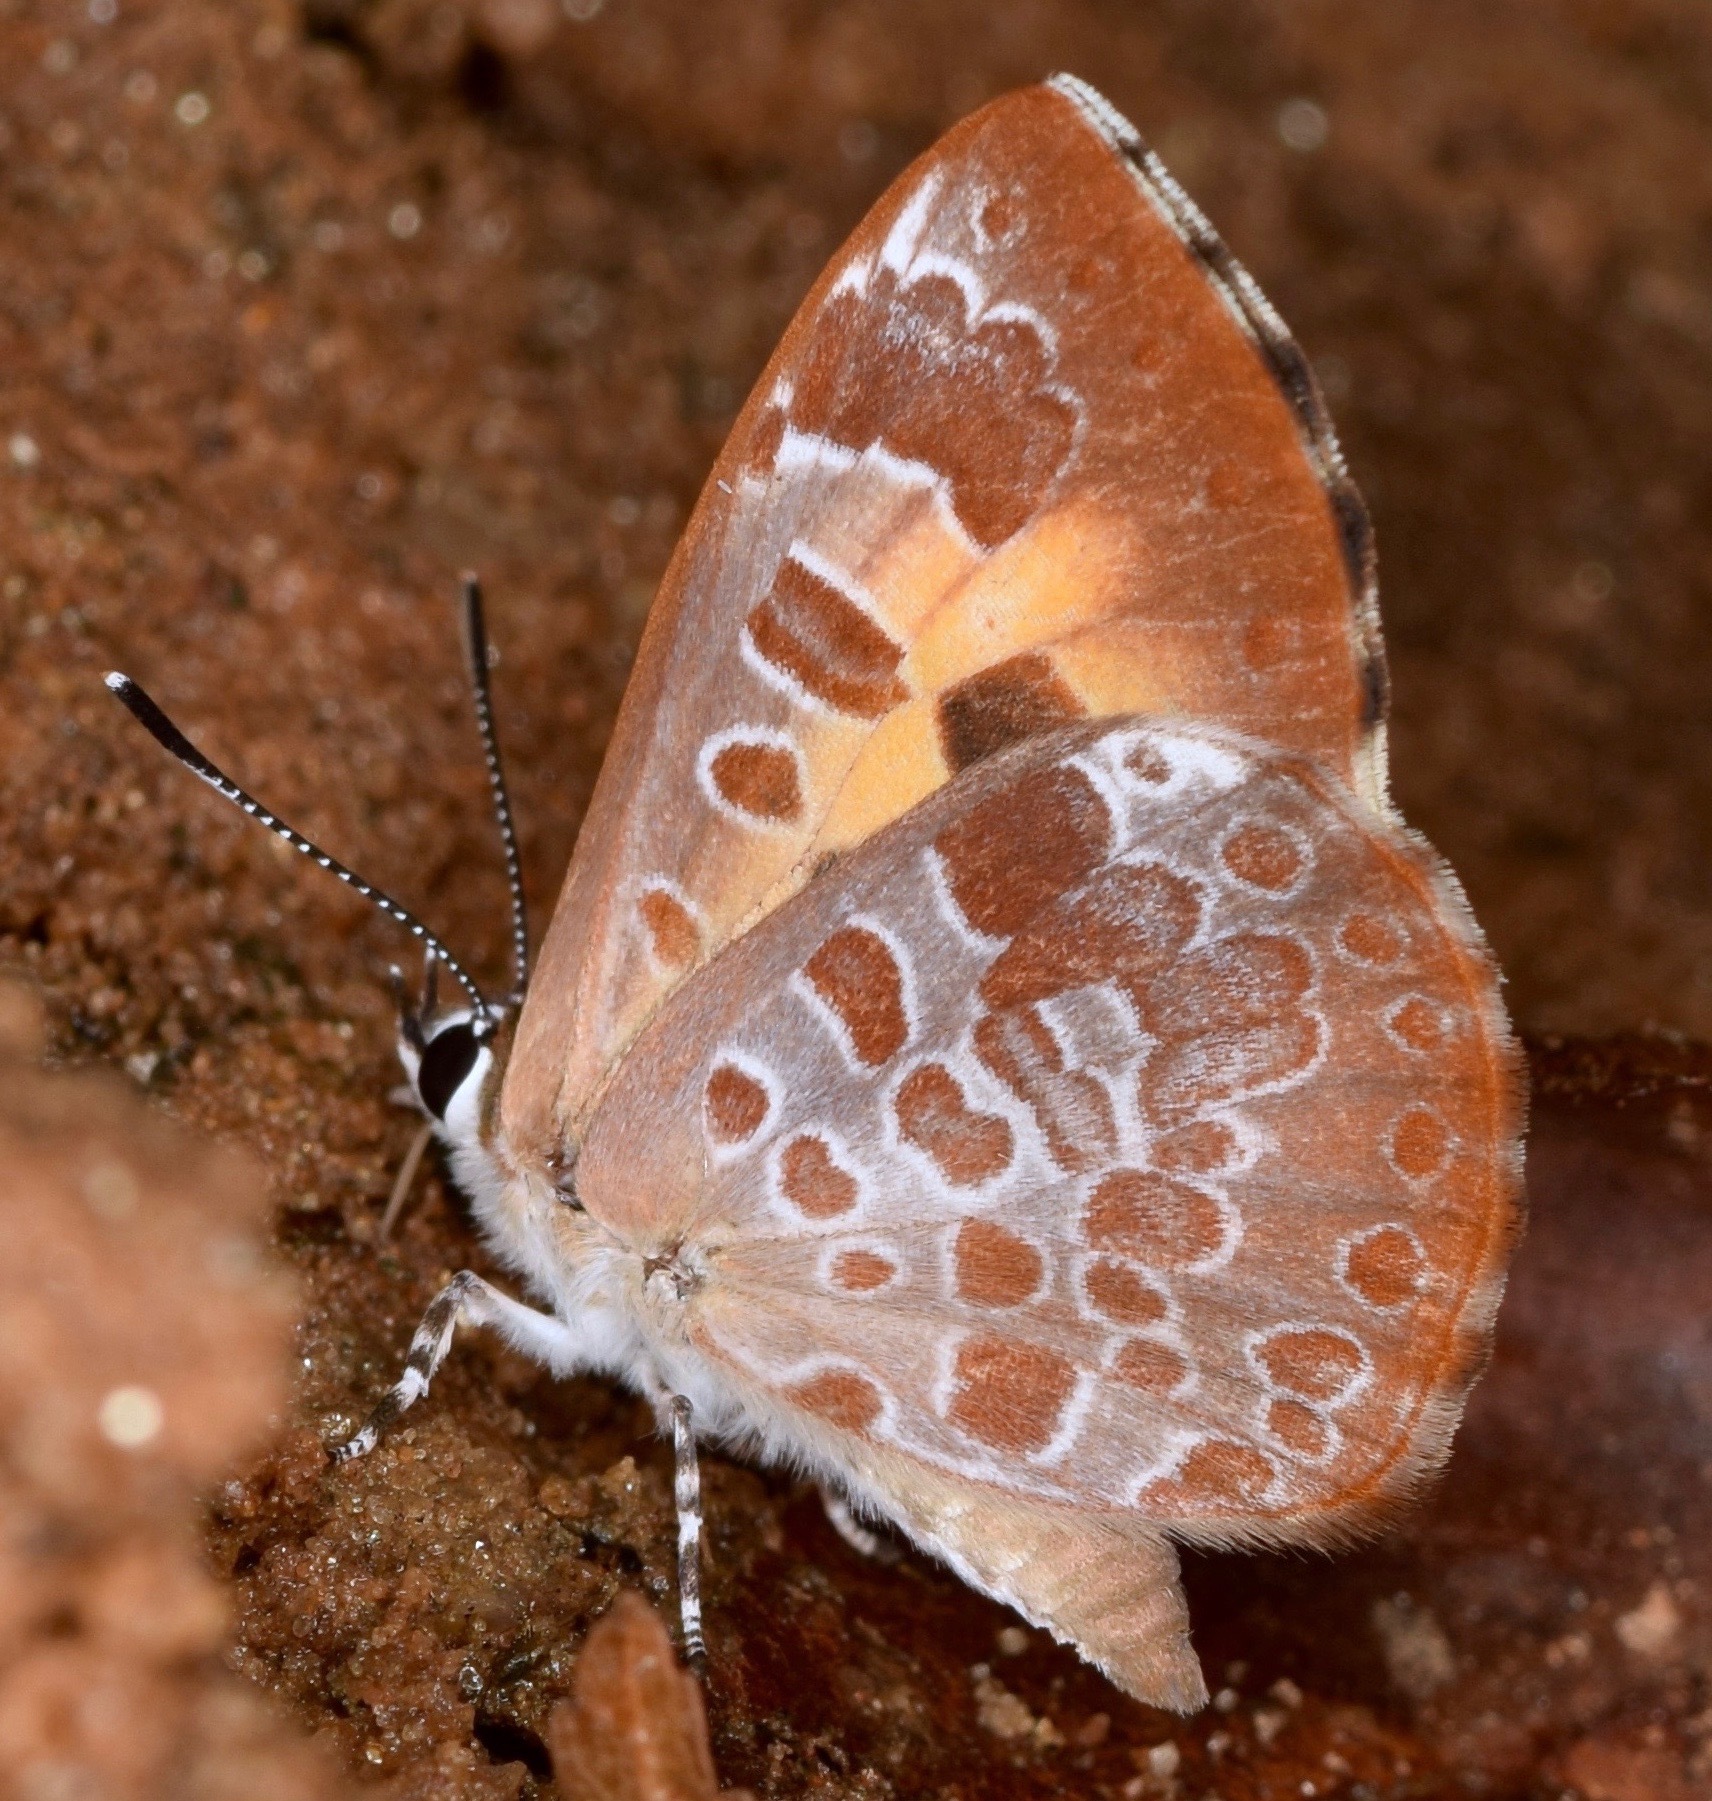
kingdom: Animalia
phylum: Arthropoda
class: Insecta
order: Lepidoptera
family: Lycaenidae
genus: Feniseca
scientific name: Feniseca tarquinius
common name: Harvester
